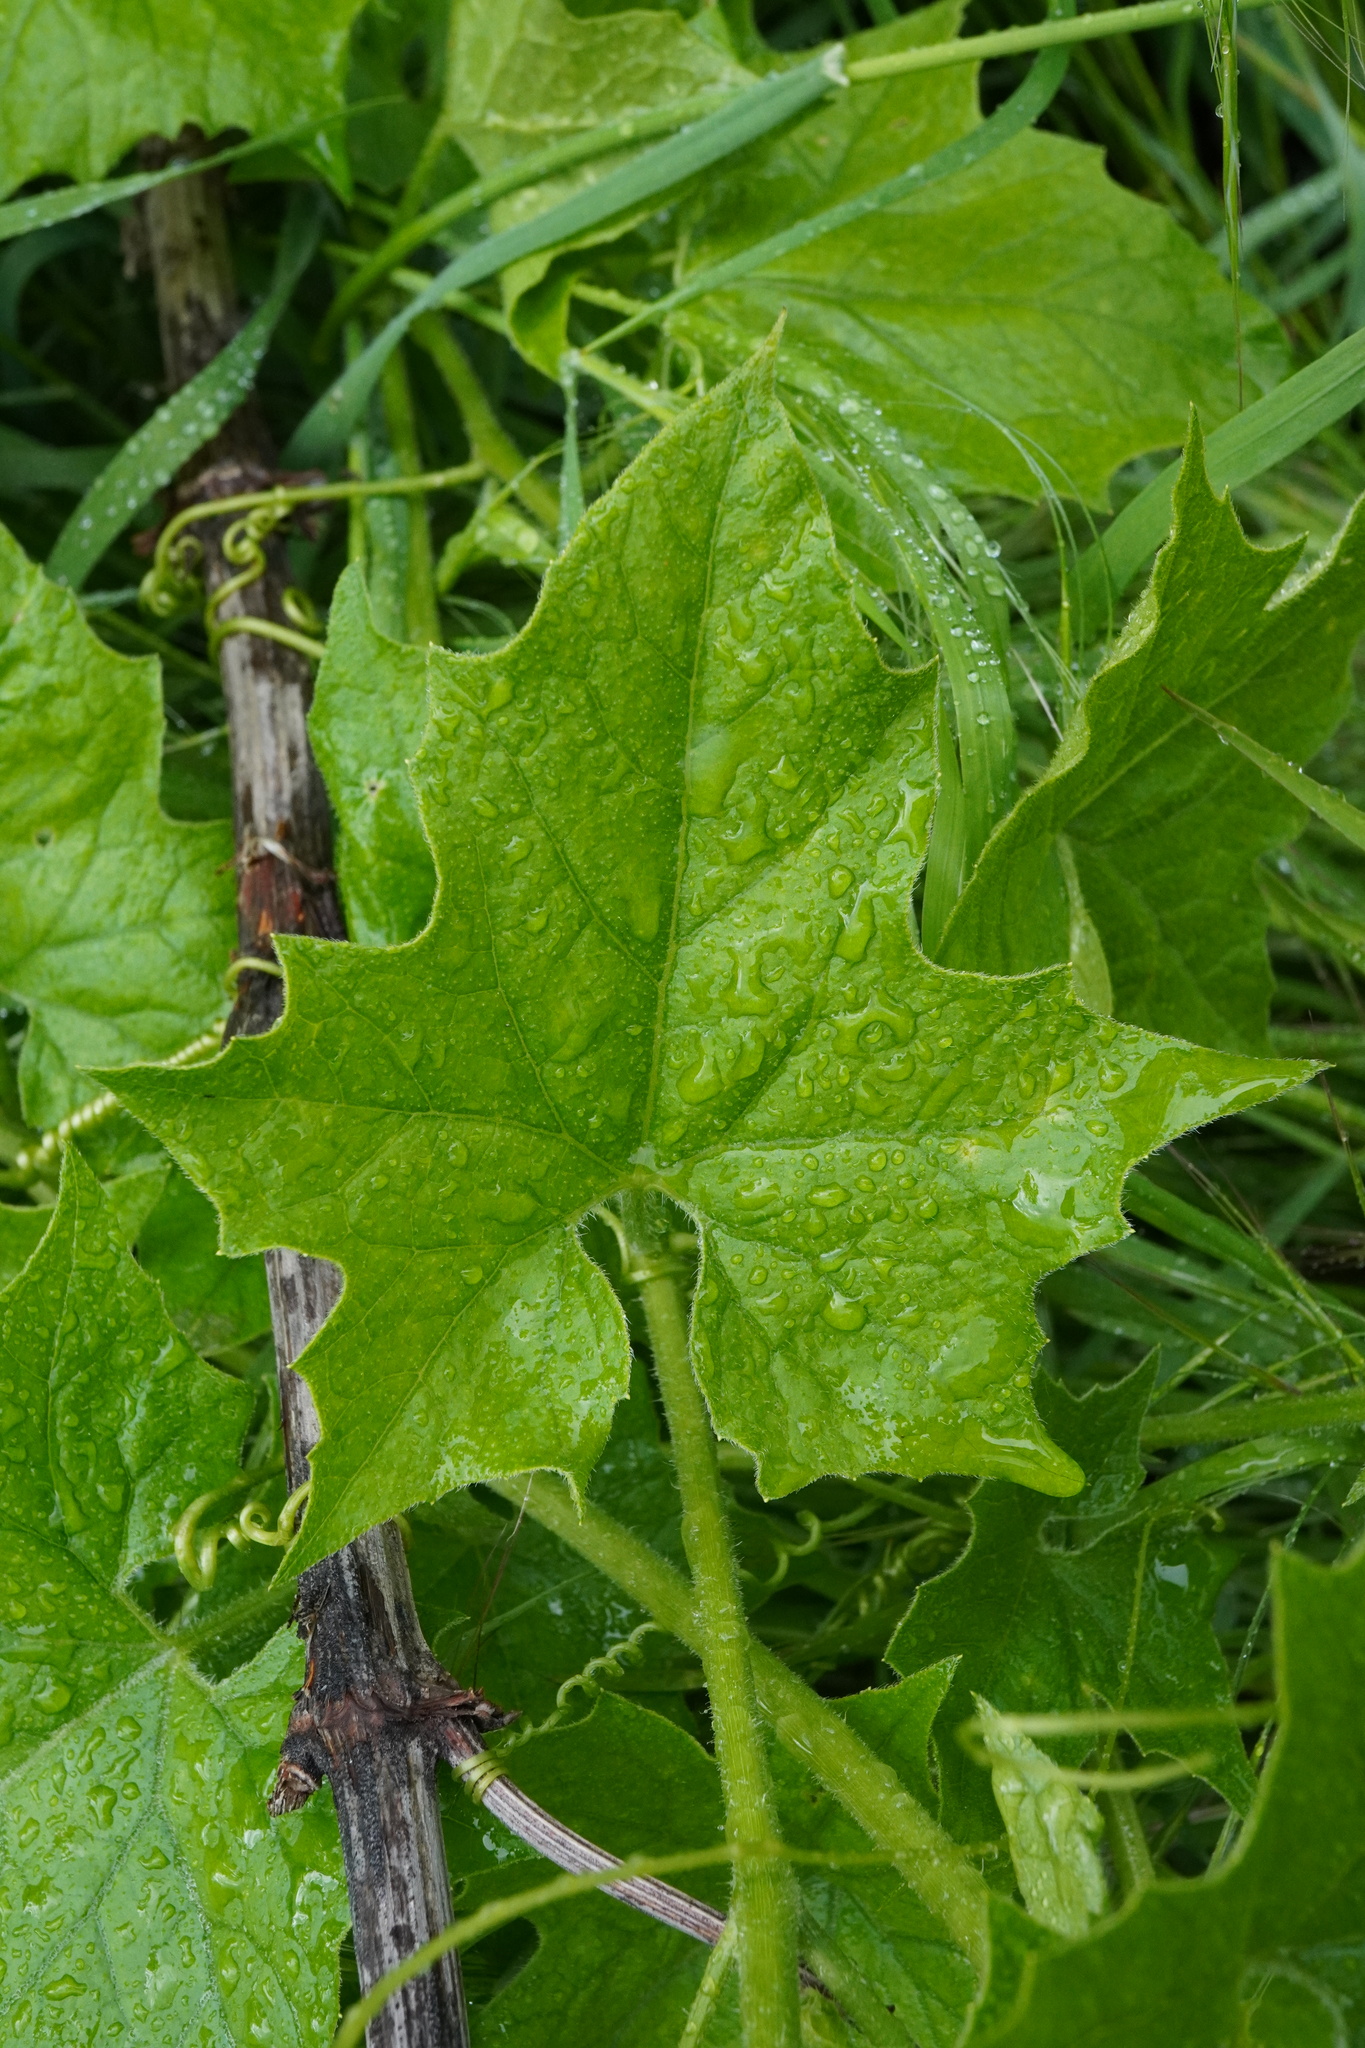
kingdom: Plantae
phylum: Tracheophyta
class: Magnoliopsida
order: Cucurbitales
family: Cucurbitaceae
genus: Bryonia
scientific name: Bryonia alba
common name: White bryony
